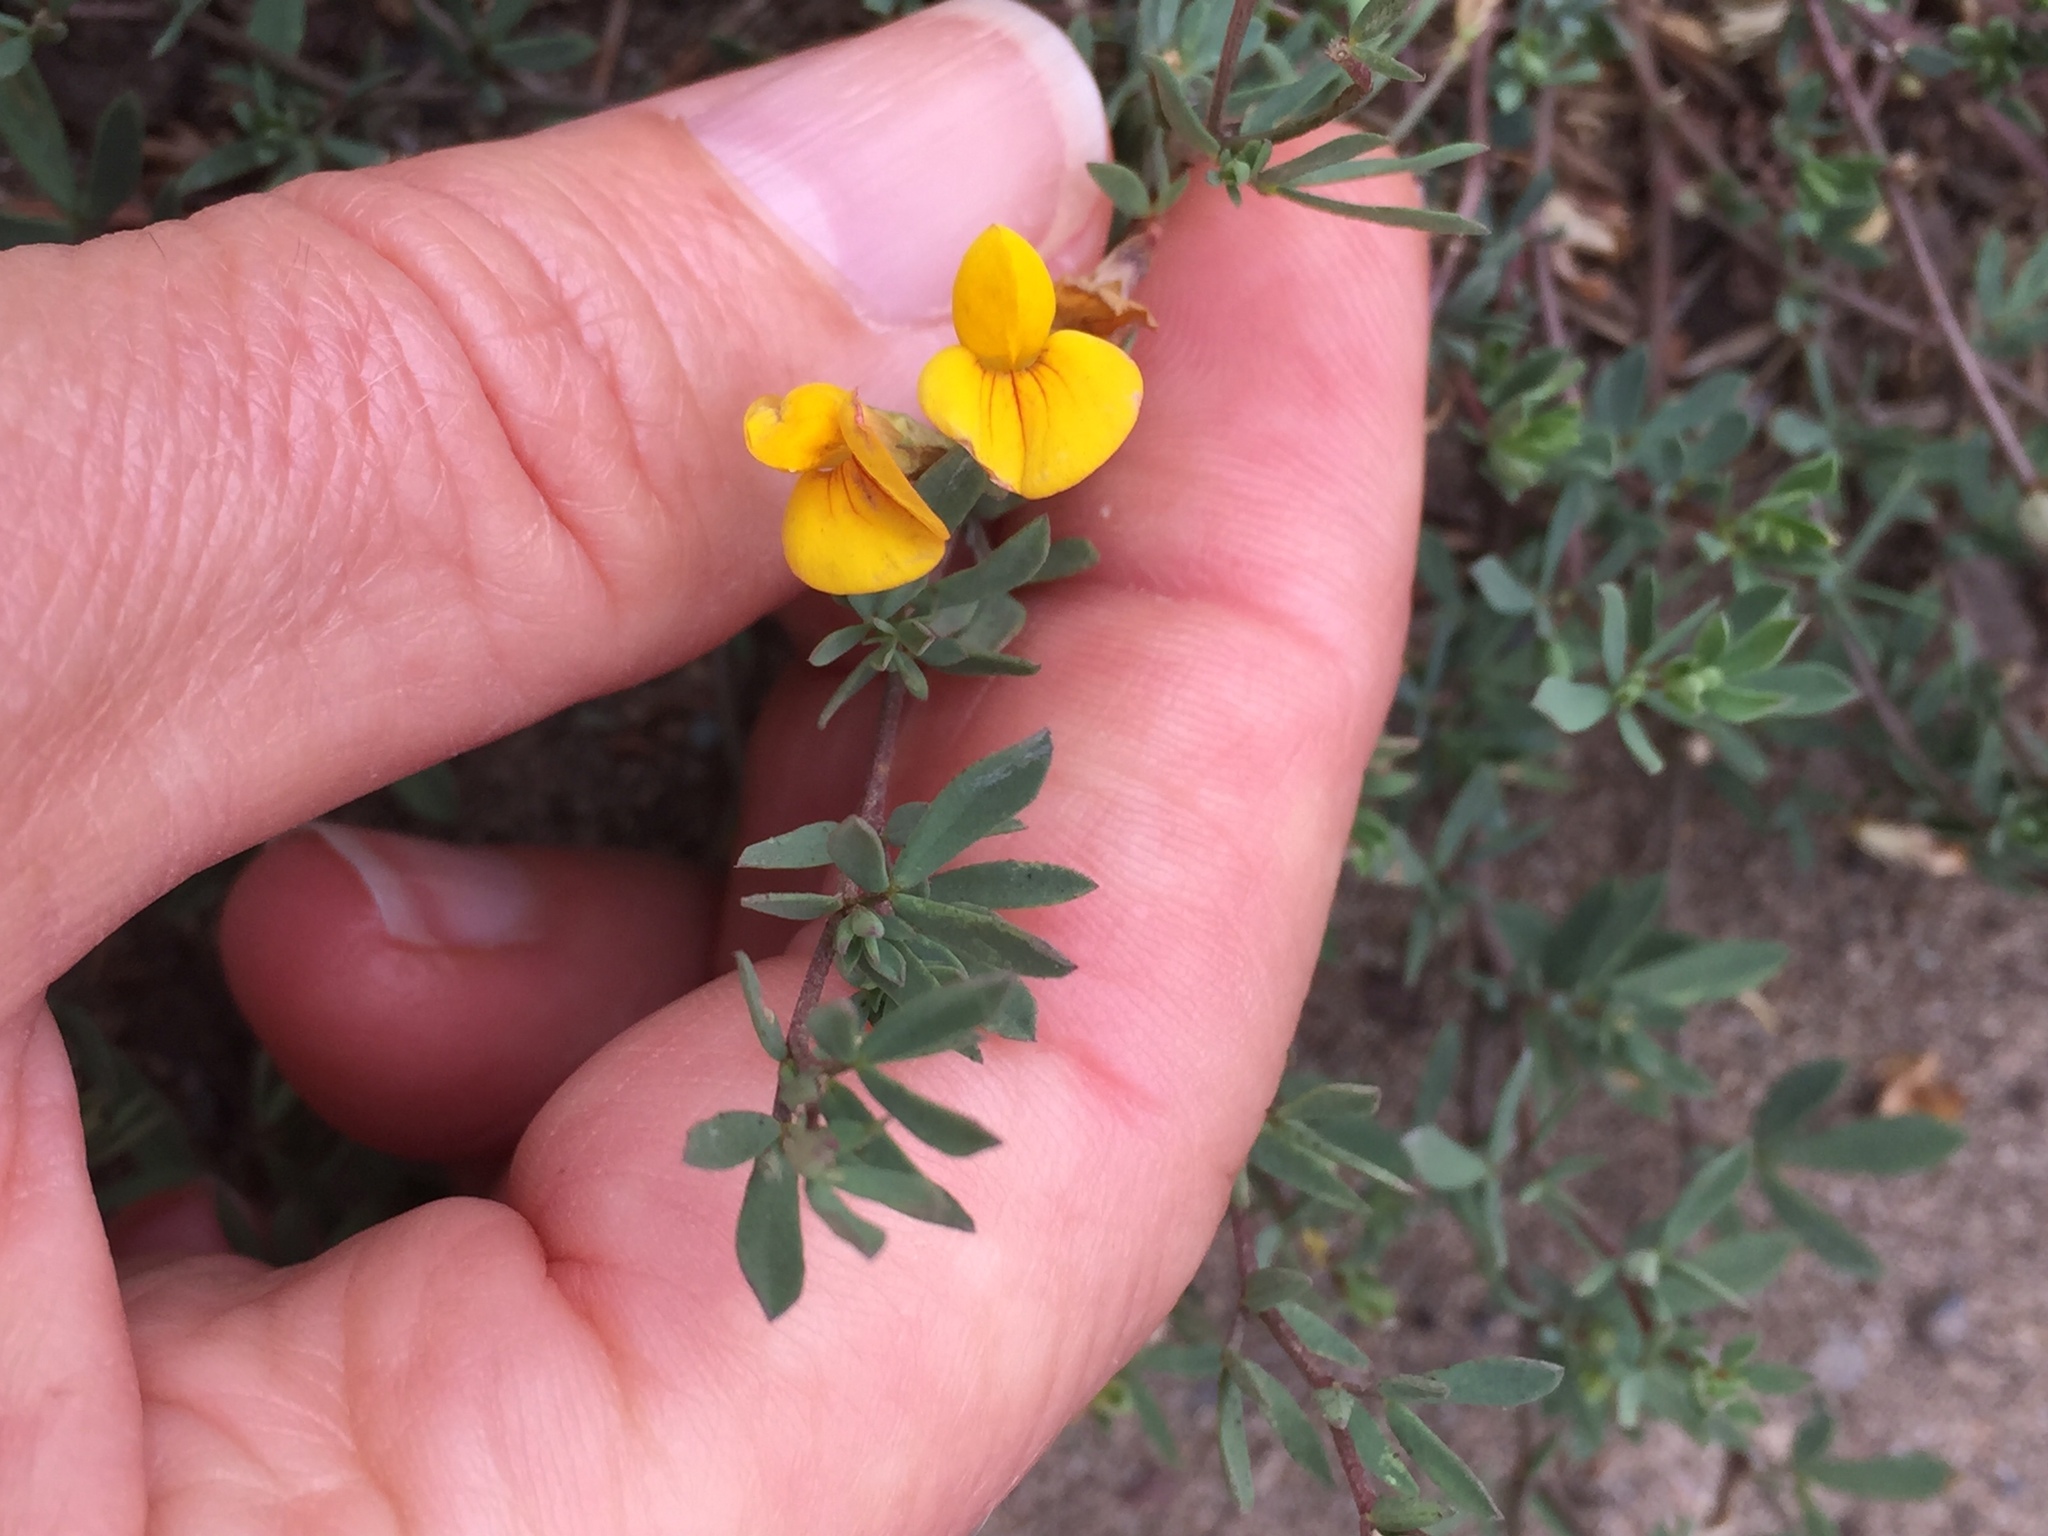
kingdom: Plantae
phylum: Tracheophyta
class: Magnoliopsida
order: Fabales
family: Fabaceae
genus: Lotus
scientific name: Lotus corniculatus
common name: Common bird's-foot-trefoil
